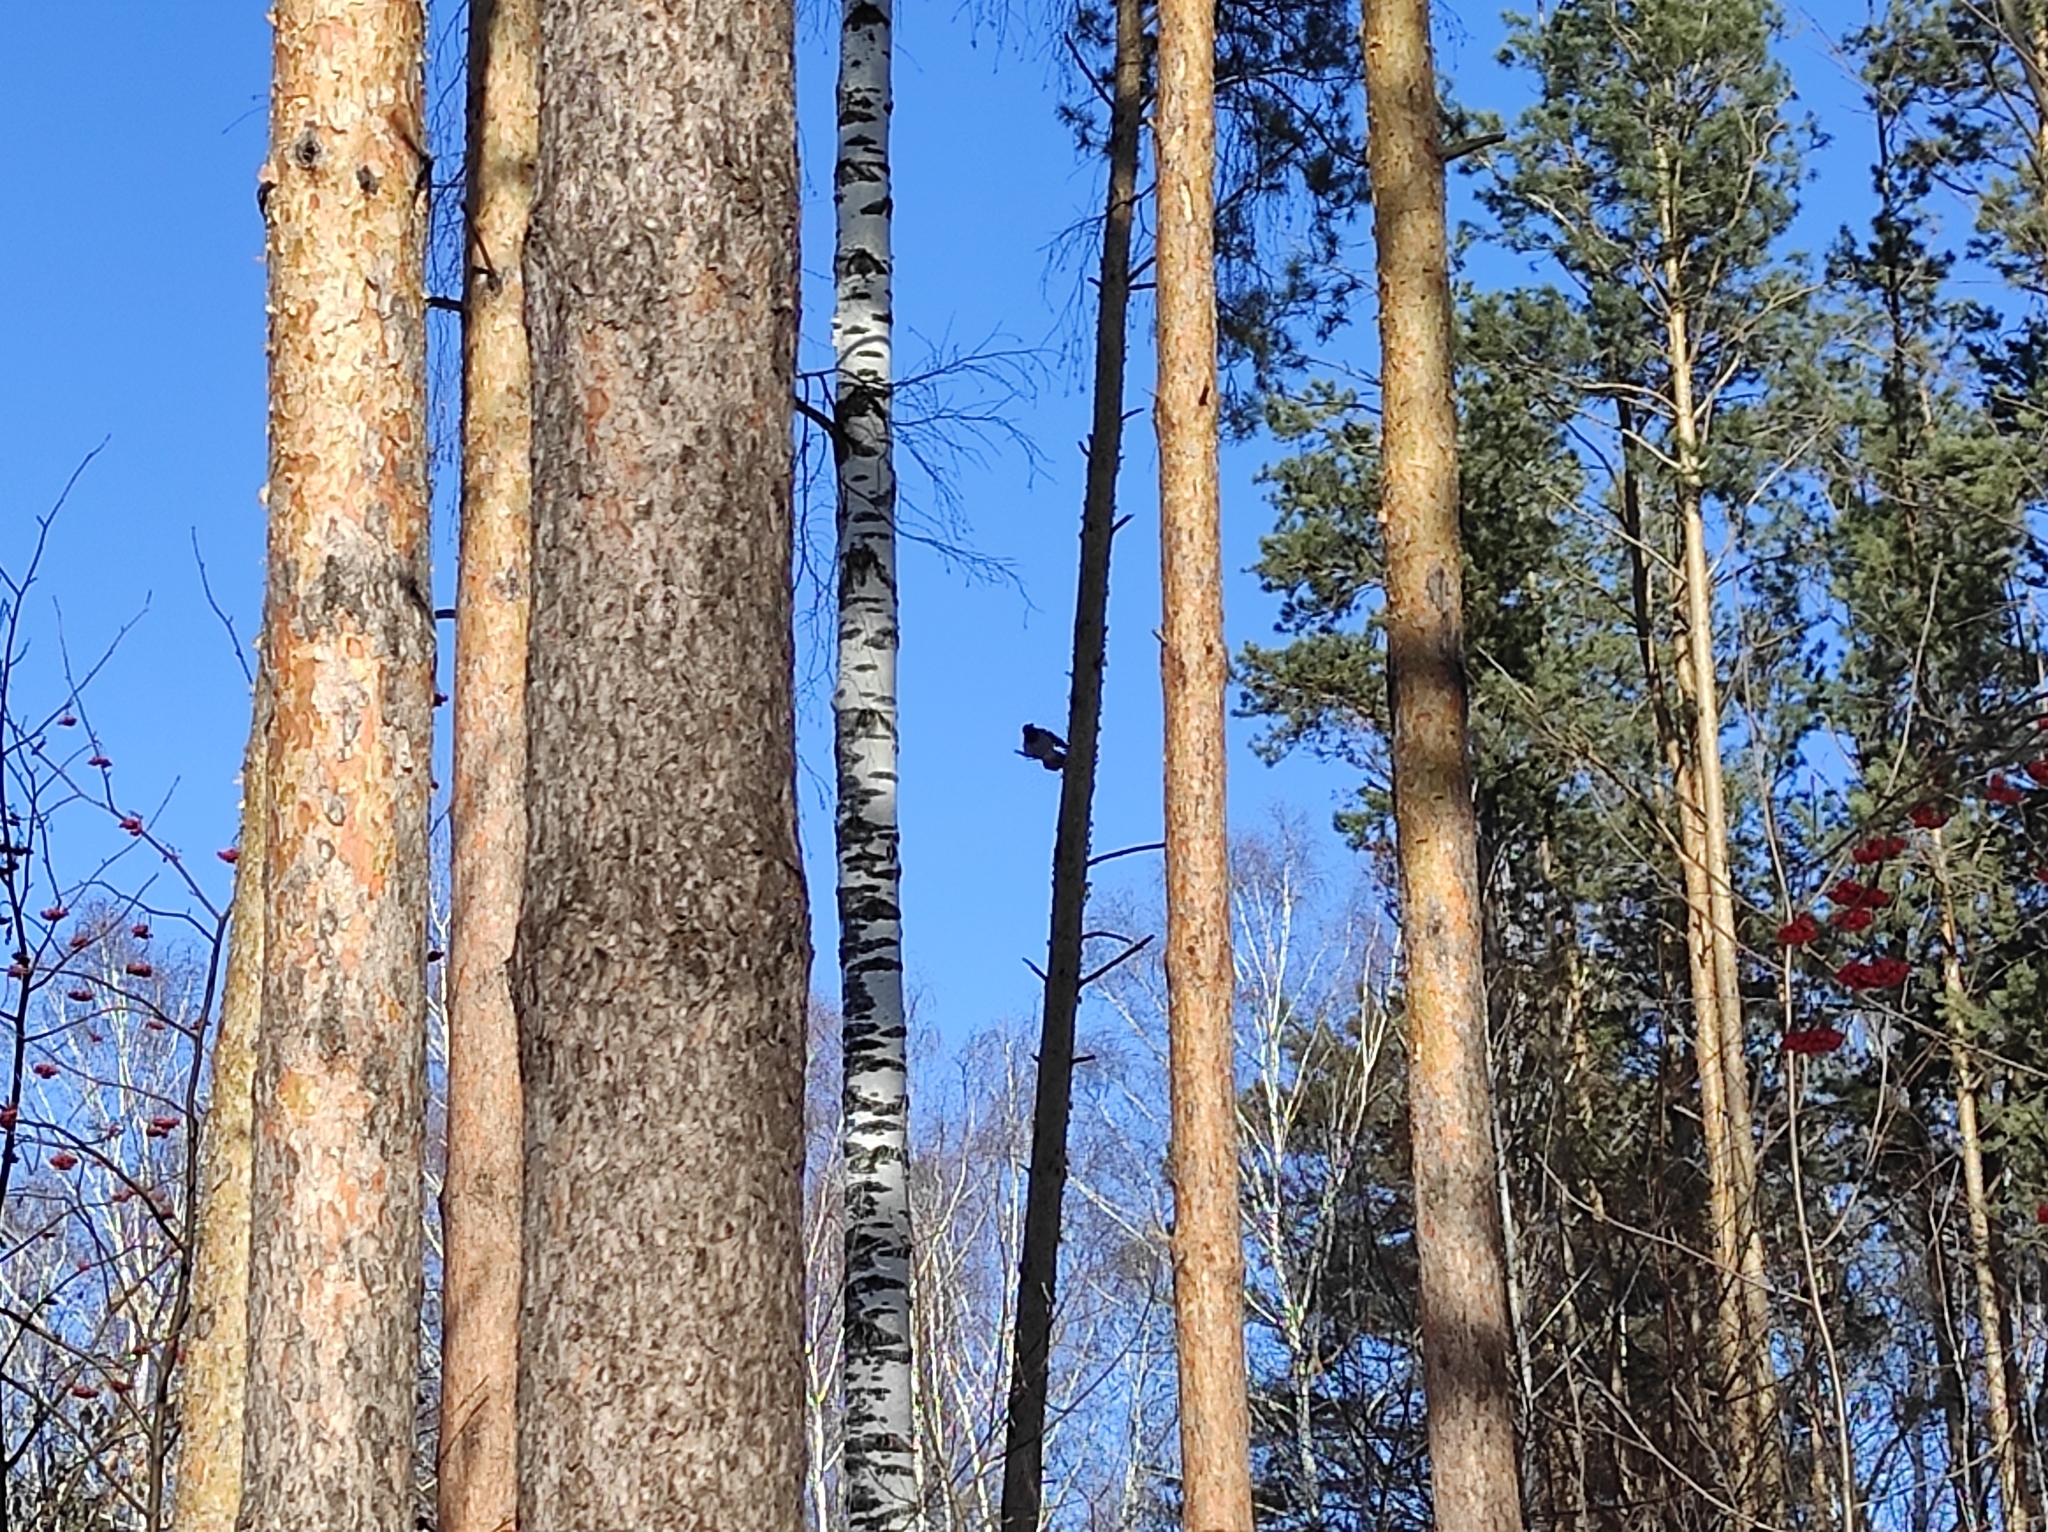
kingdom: Animalia
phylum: Chordata
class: Aves
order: Passeriformes
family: Corvidae
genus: Corvus
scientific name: Corvus cornix
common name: Hooded crow
